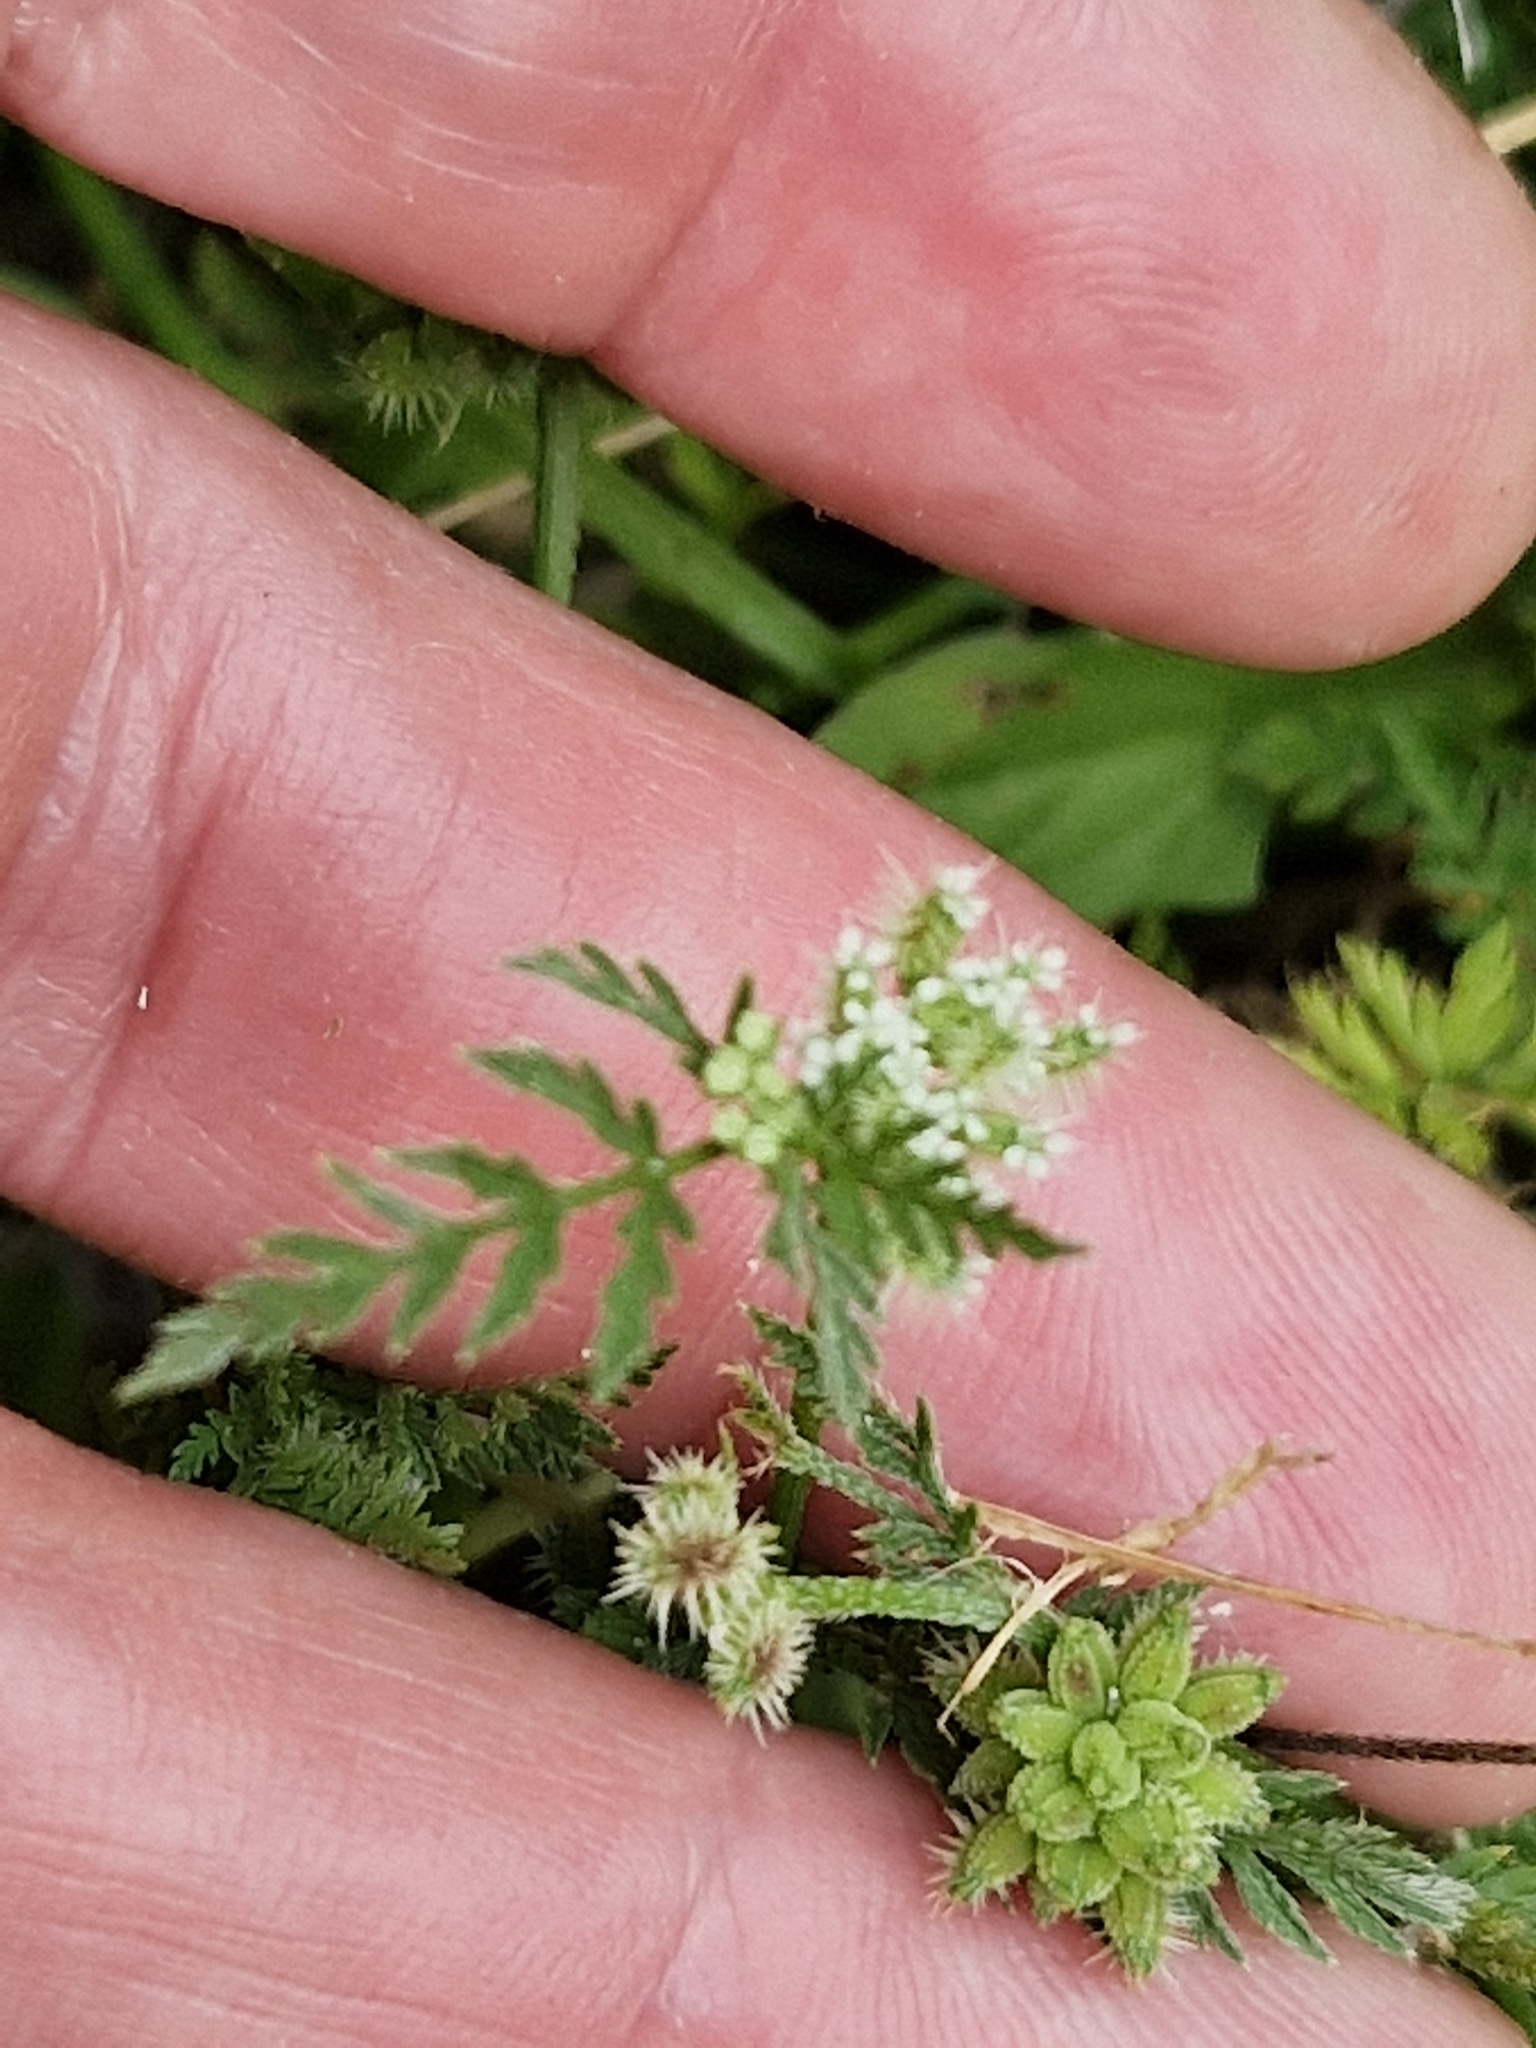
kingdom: Plantae
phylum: Tracheophyta
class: Magnoliopsida
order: Apiales
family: Apiaceae
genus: Torilis
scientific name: Torilis nodosa
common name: Knotted hedge-parsley
